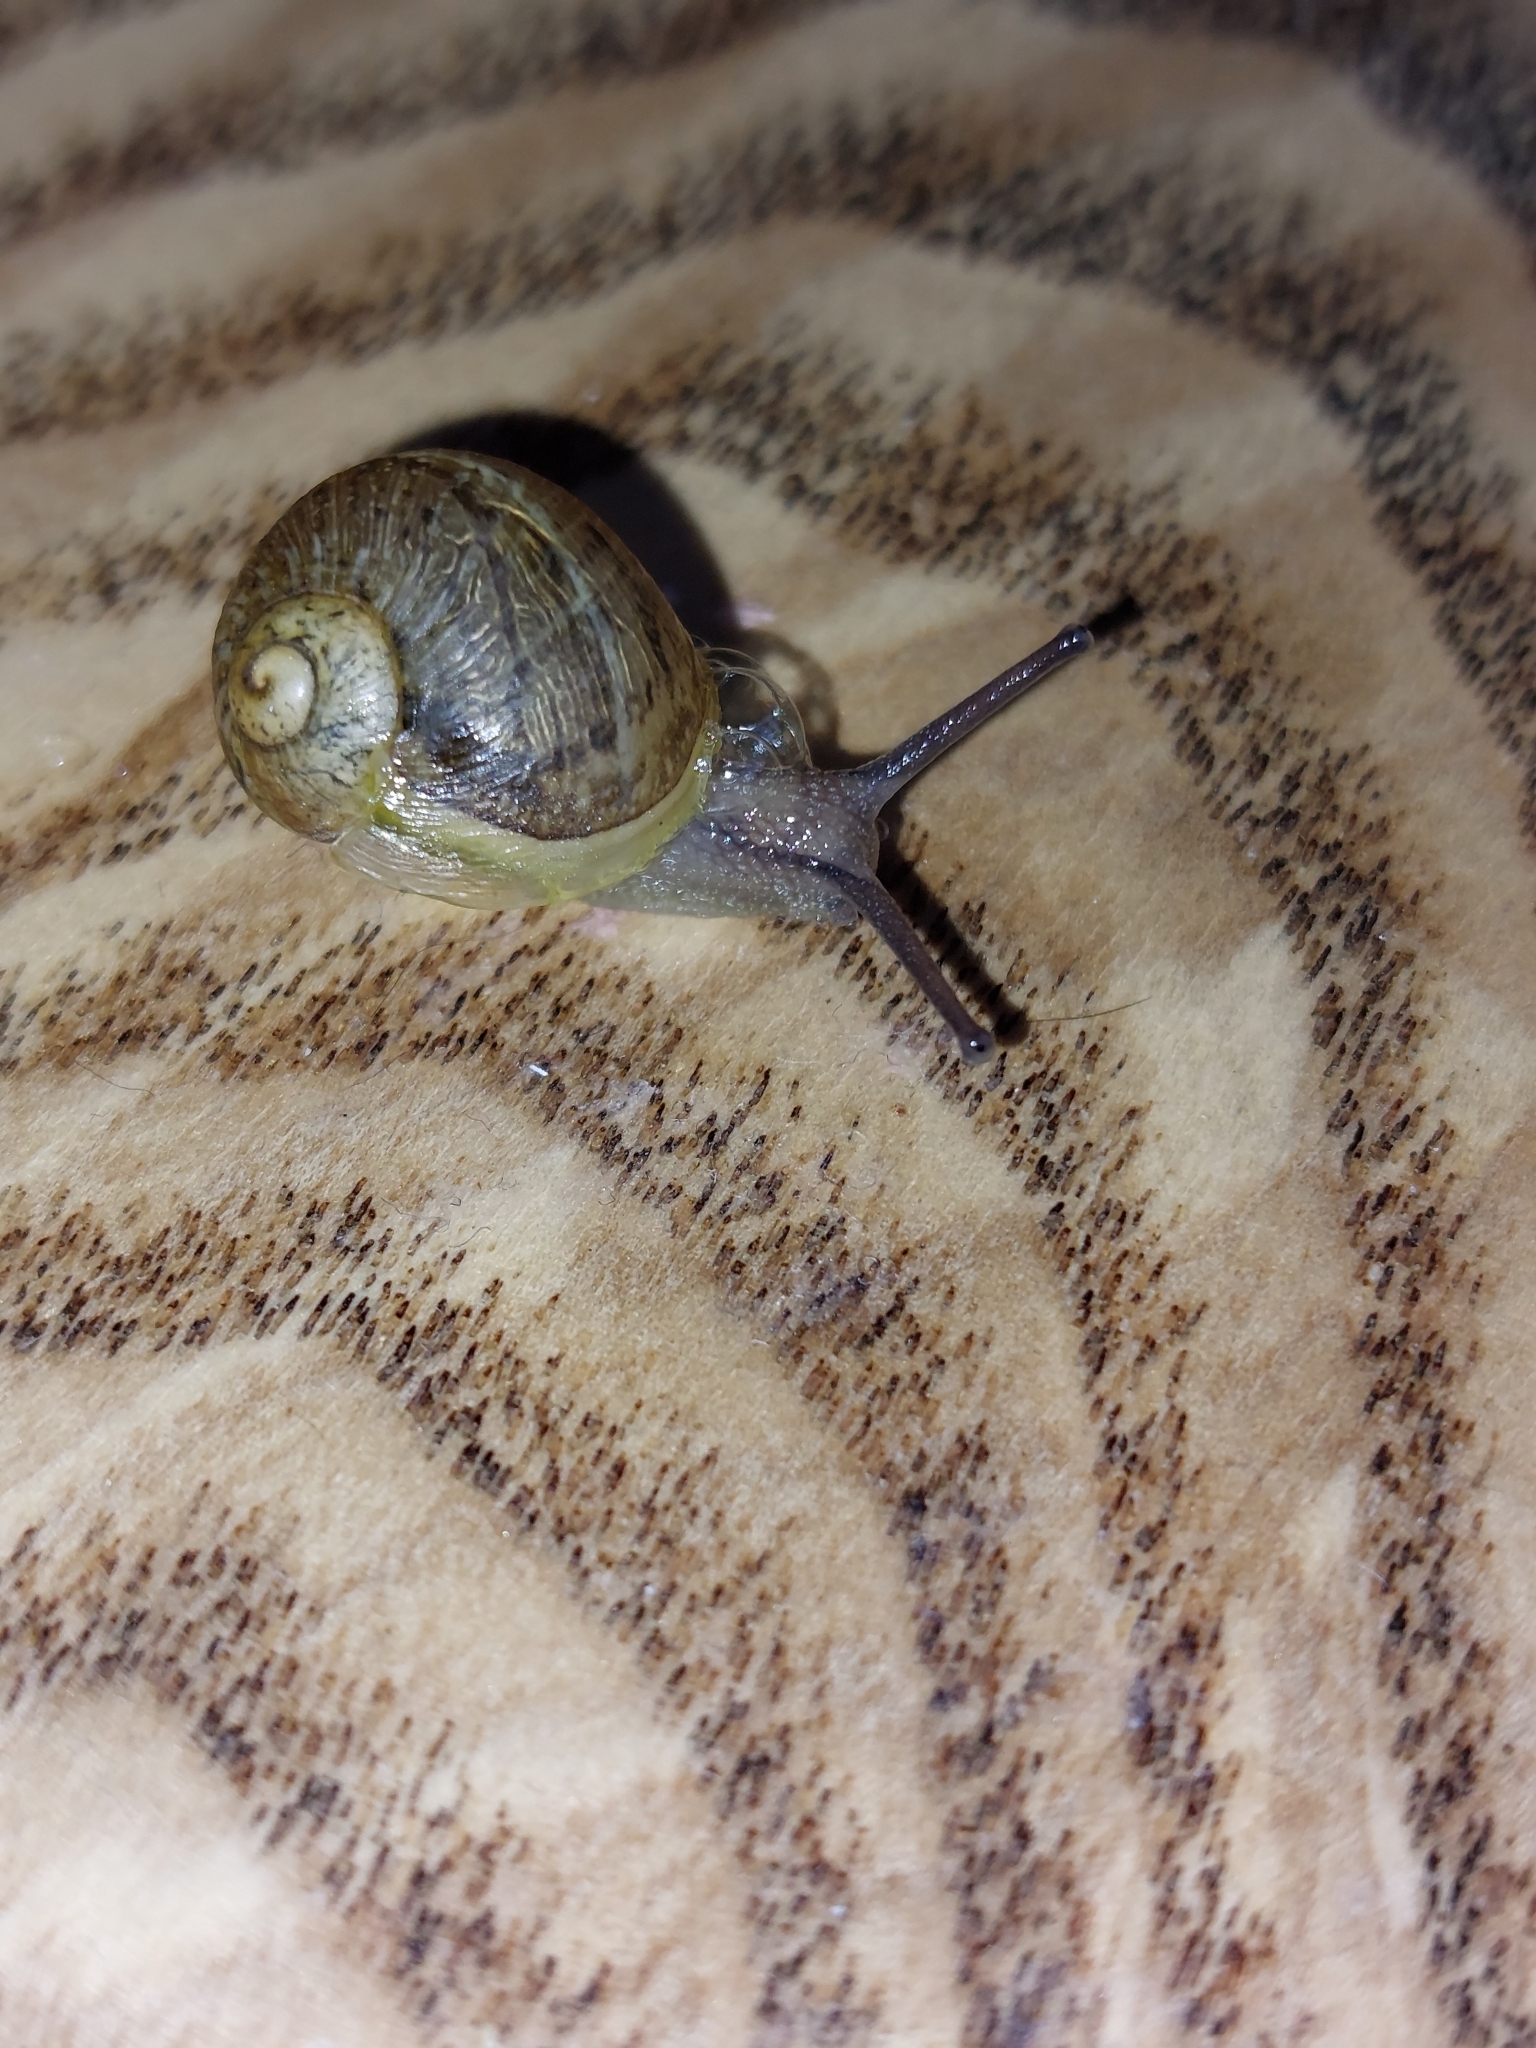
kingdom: Animalia
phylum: Mollusca
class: Gastropoda
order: Stylommatophora
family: Helicidae
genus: Cornu
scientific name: Cornu aspersum
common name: Brown garden snail
